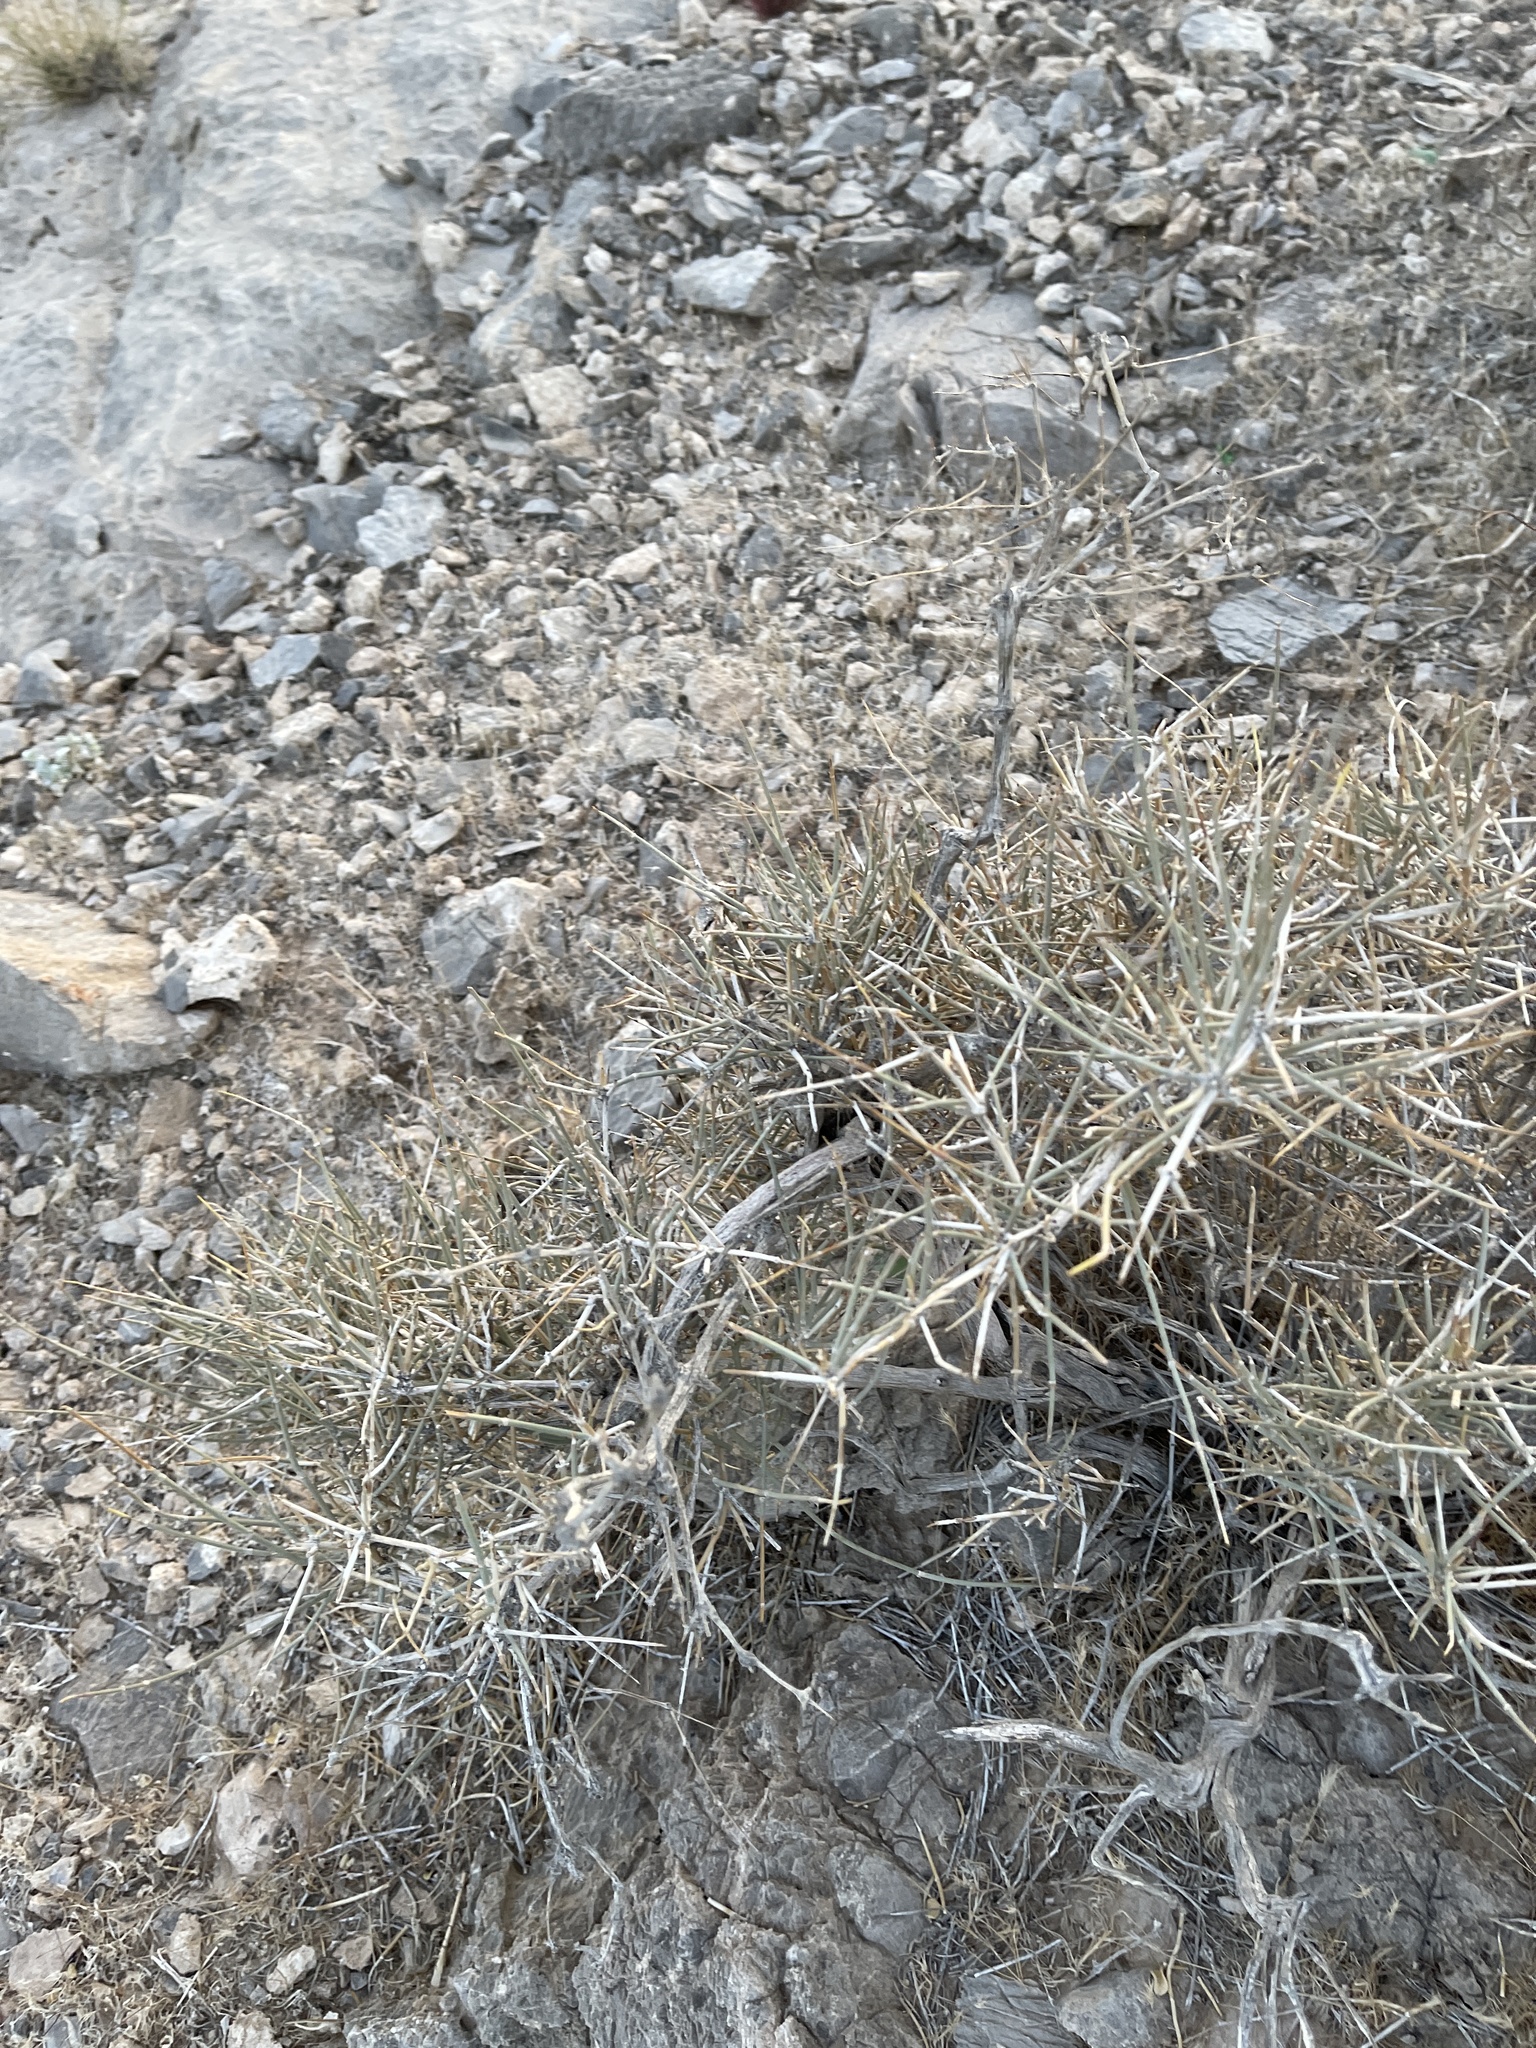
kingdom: Plantae
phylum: Tracheophyta
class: Gnetopsida
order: Ephedrales
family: Ephedraceae
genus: Ephedra
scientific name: Ephedra nevadensis
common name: Gray ephedra
